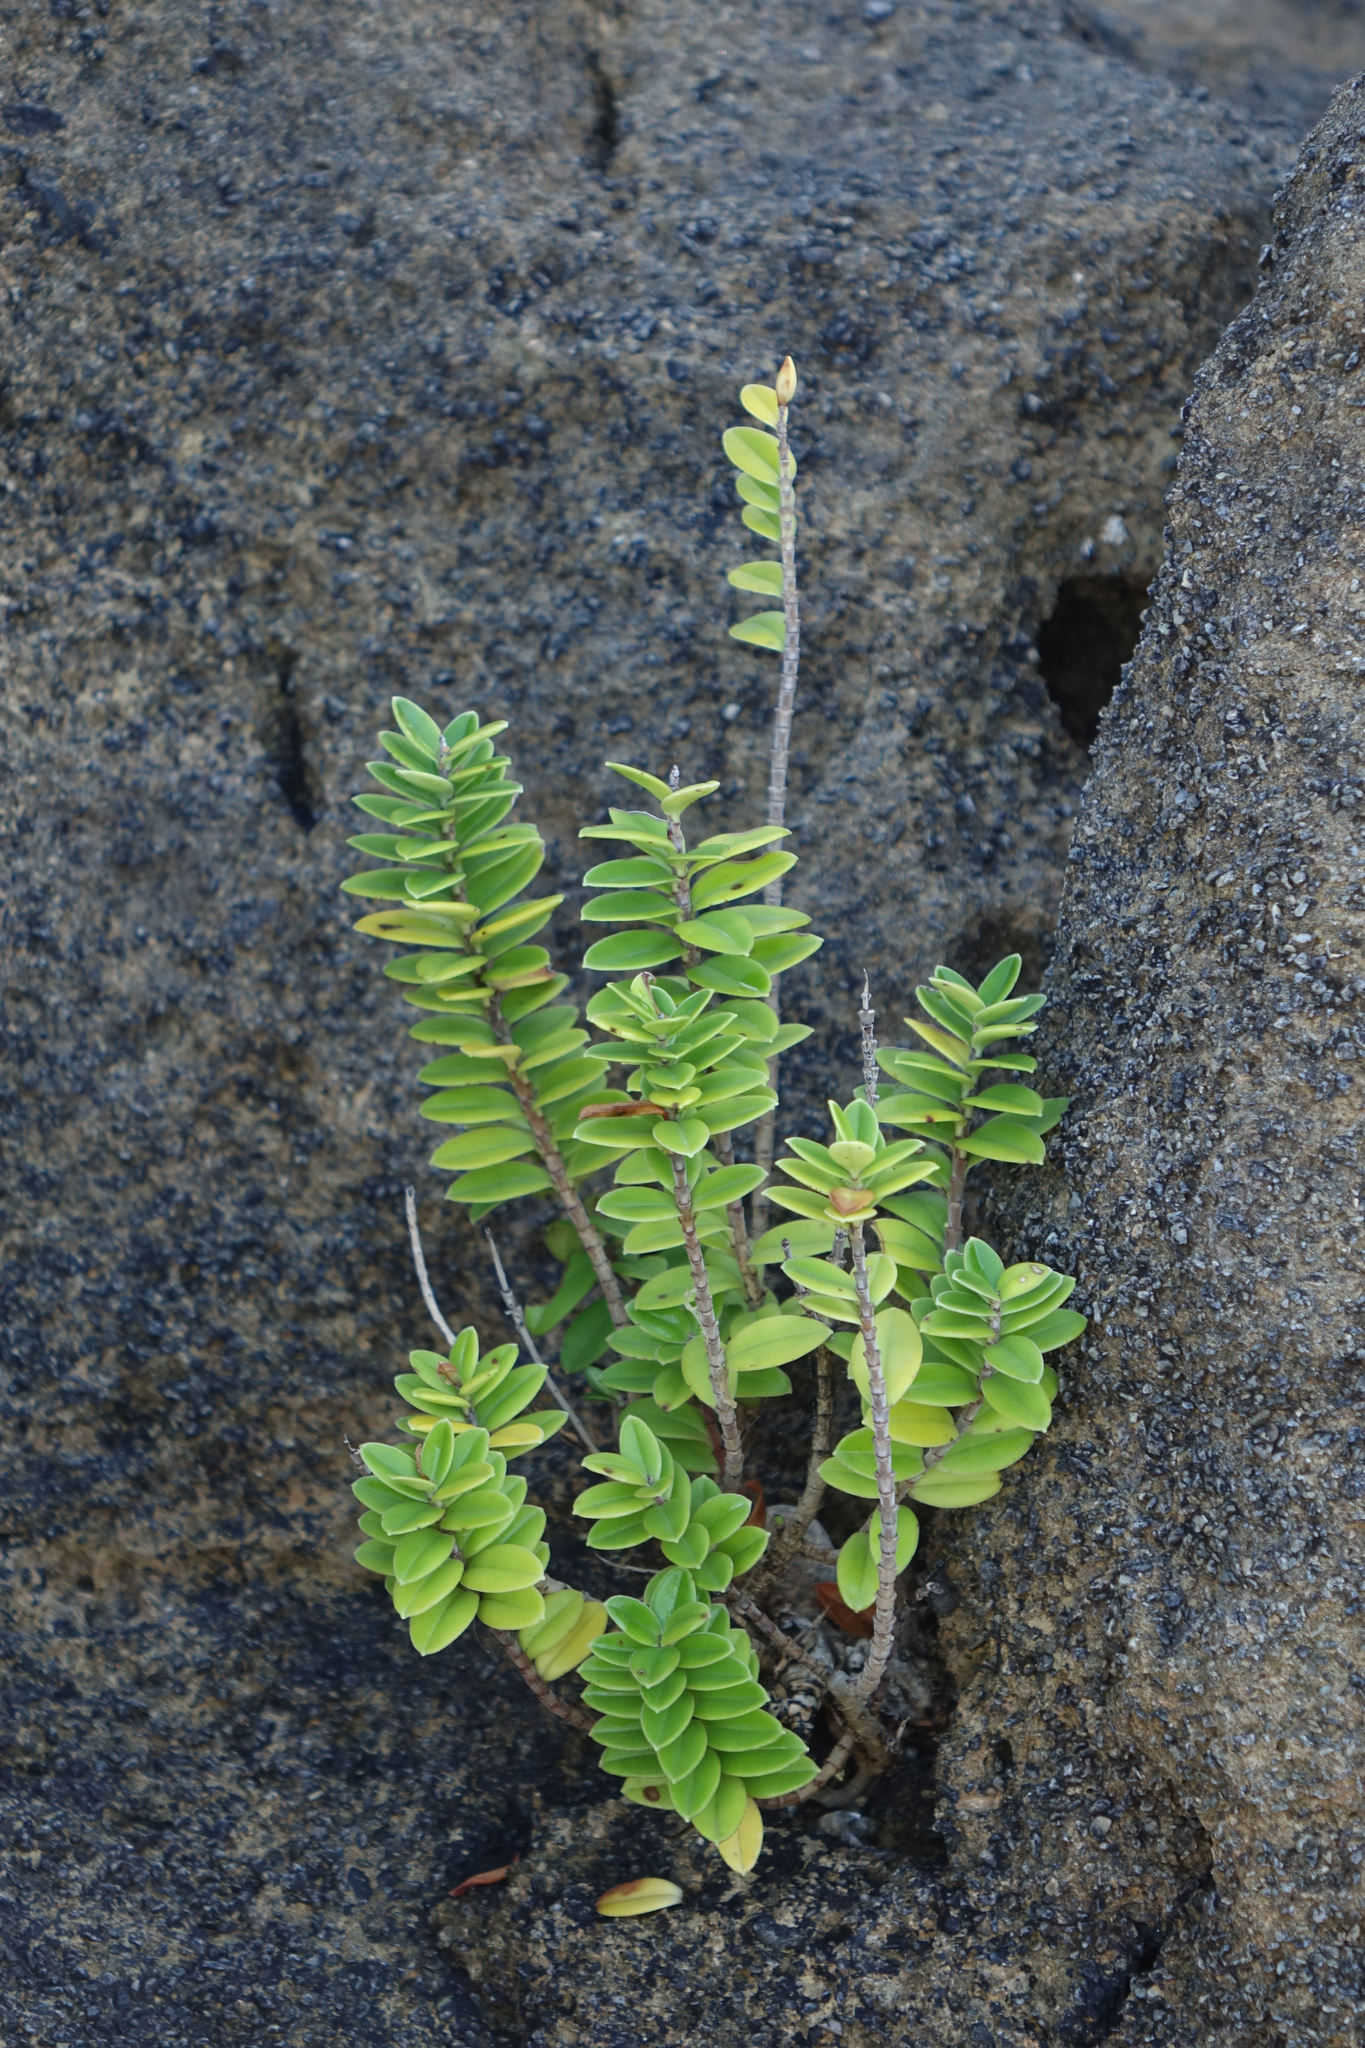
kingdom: Plantae
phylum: Tracheophyta
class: Magnoliopsida
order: Lamiales
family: Plantaginaceae
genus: Veronica
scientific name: Veronica elliptica
